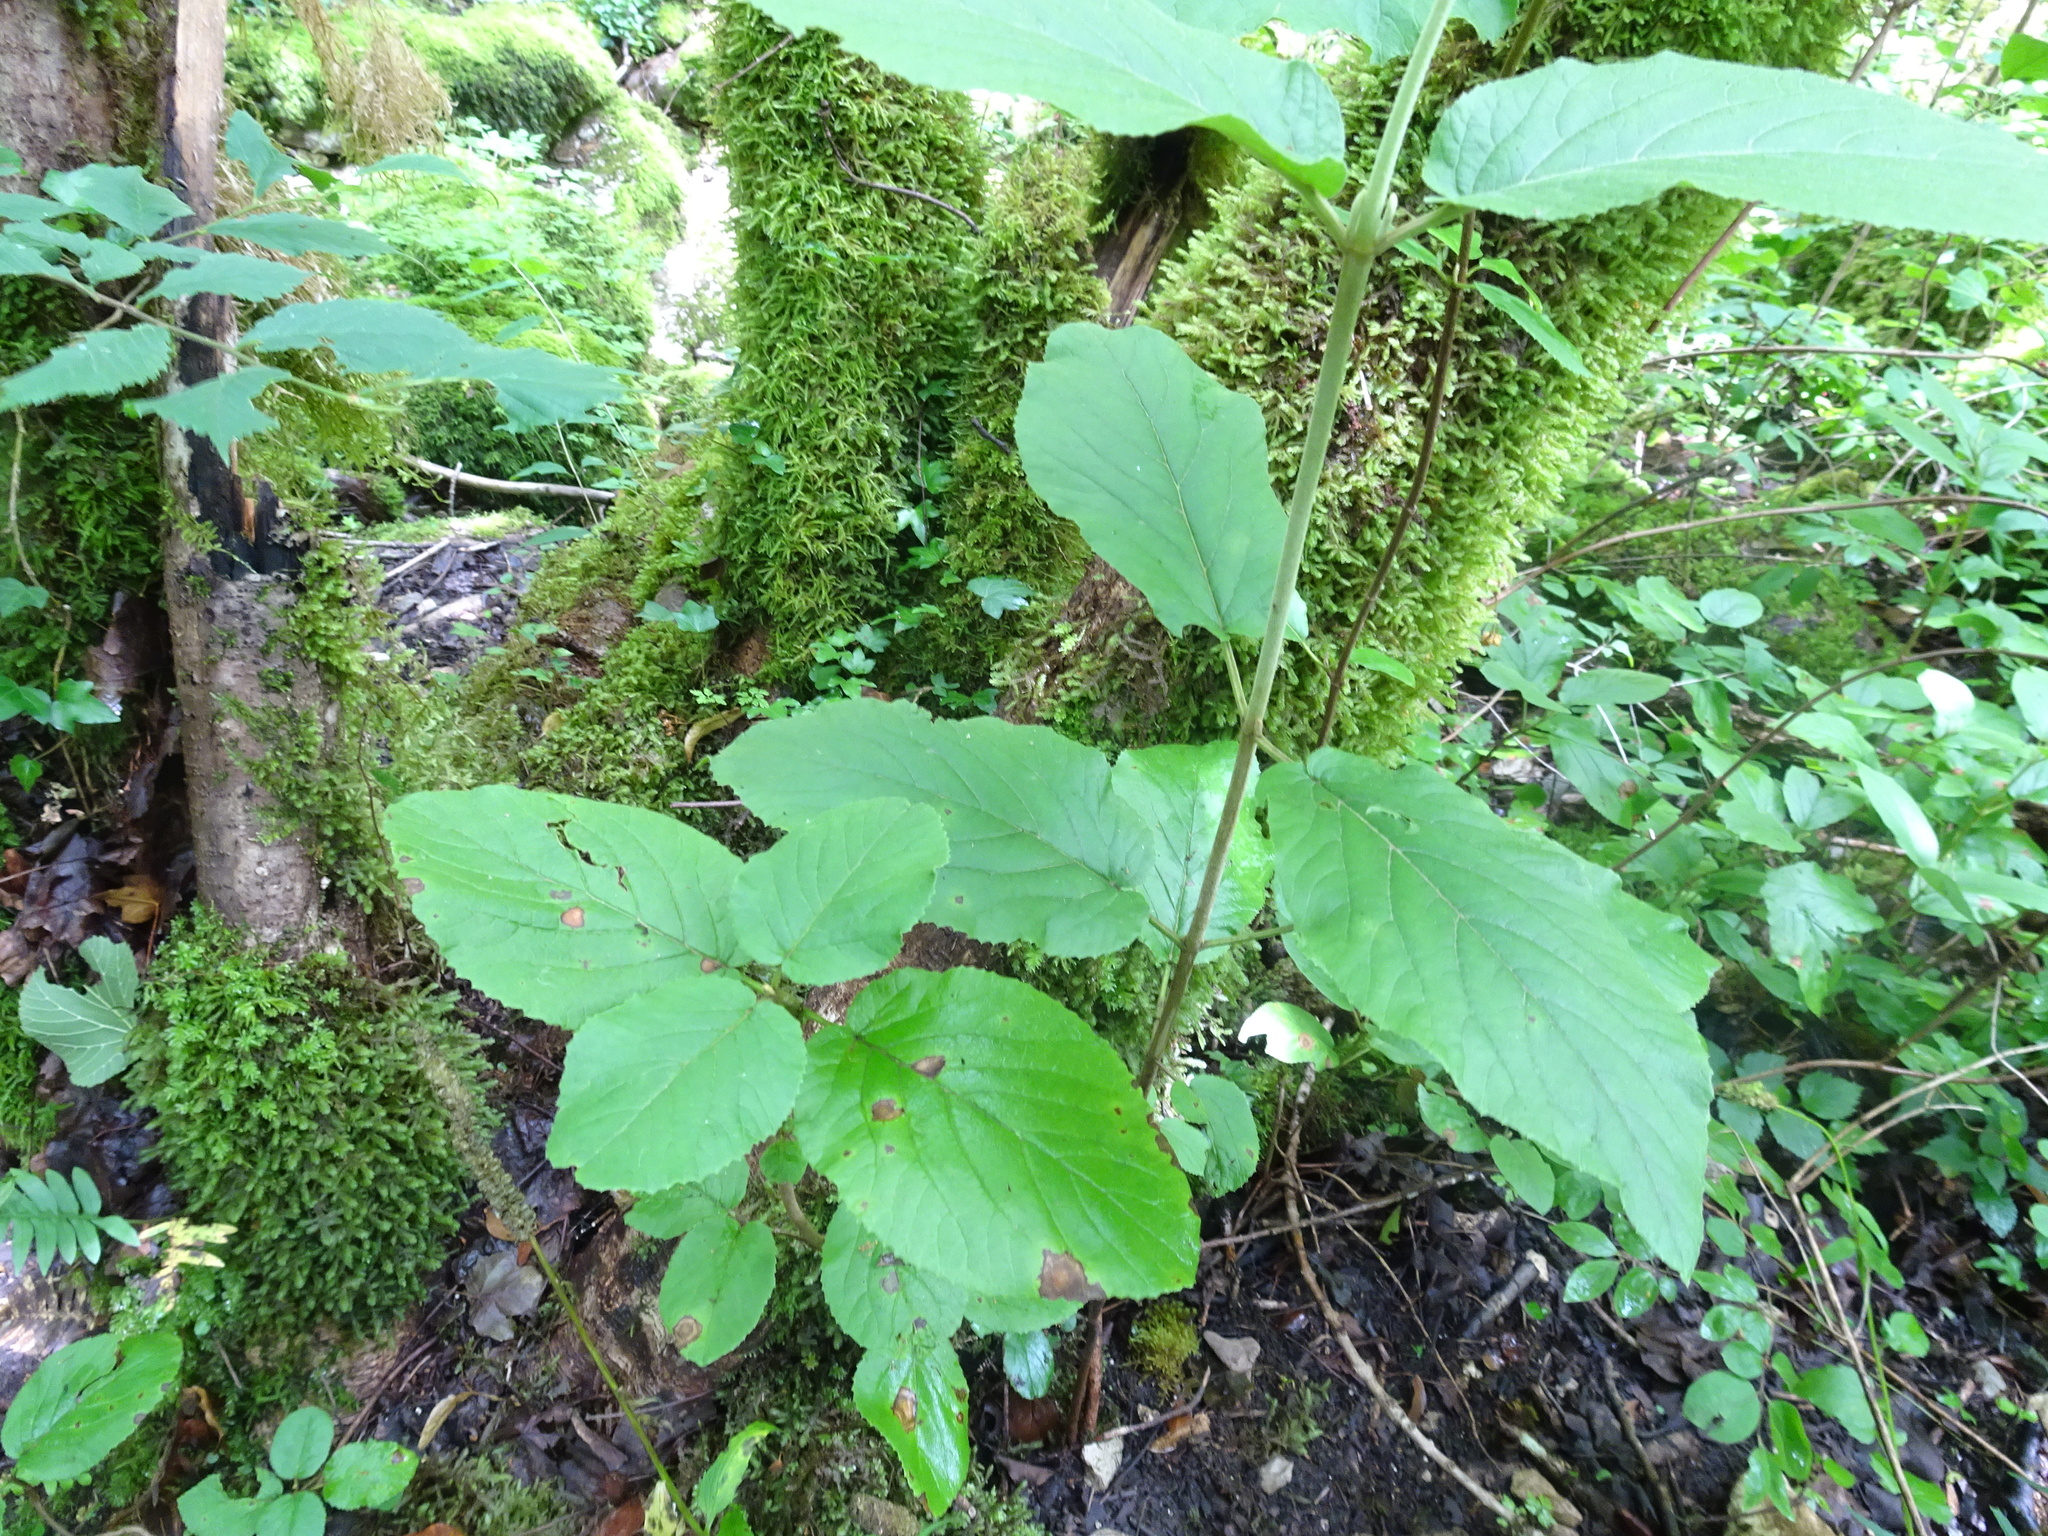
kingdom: Plantae
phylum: Tracheophyta
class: Magnoliopsida
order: Dipsacales
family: Viburnaceae
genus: Viburnum
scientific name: Viburnum lantana
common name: Wayfaring tree
